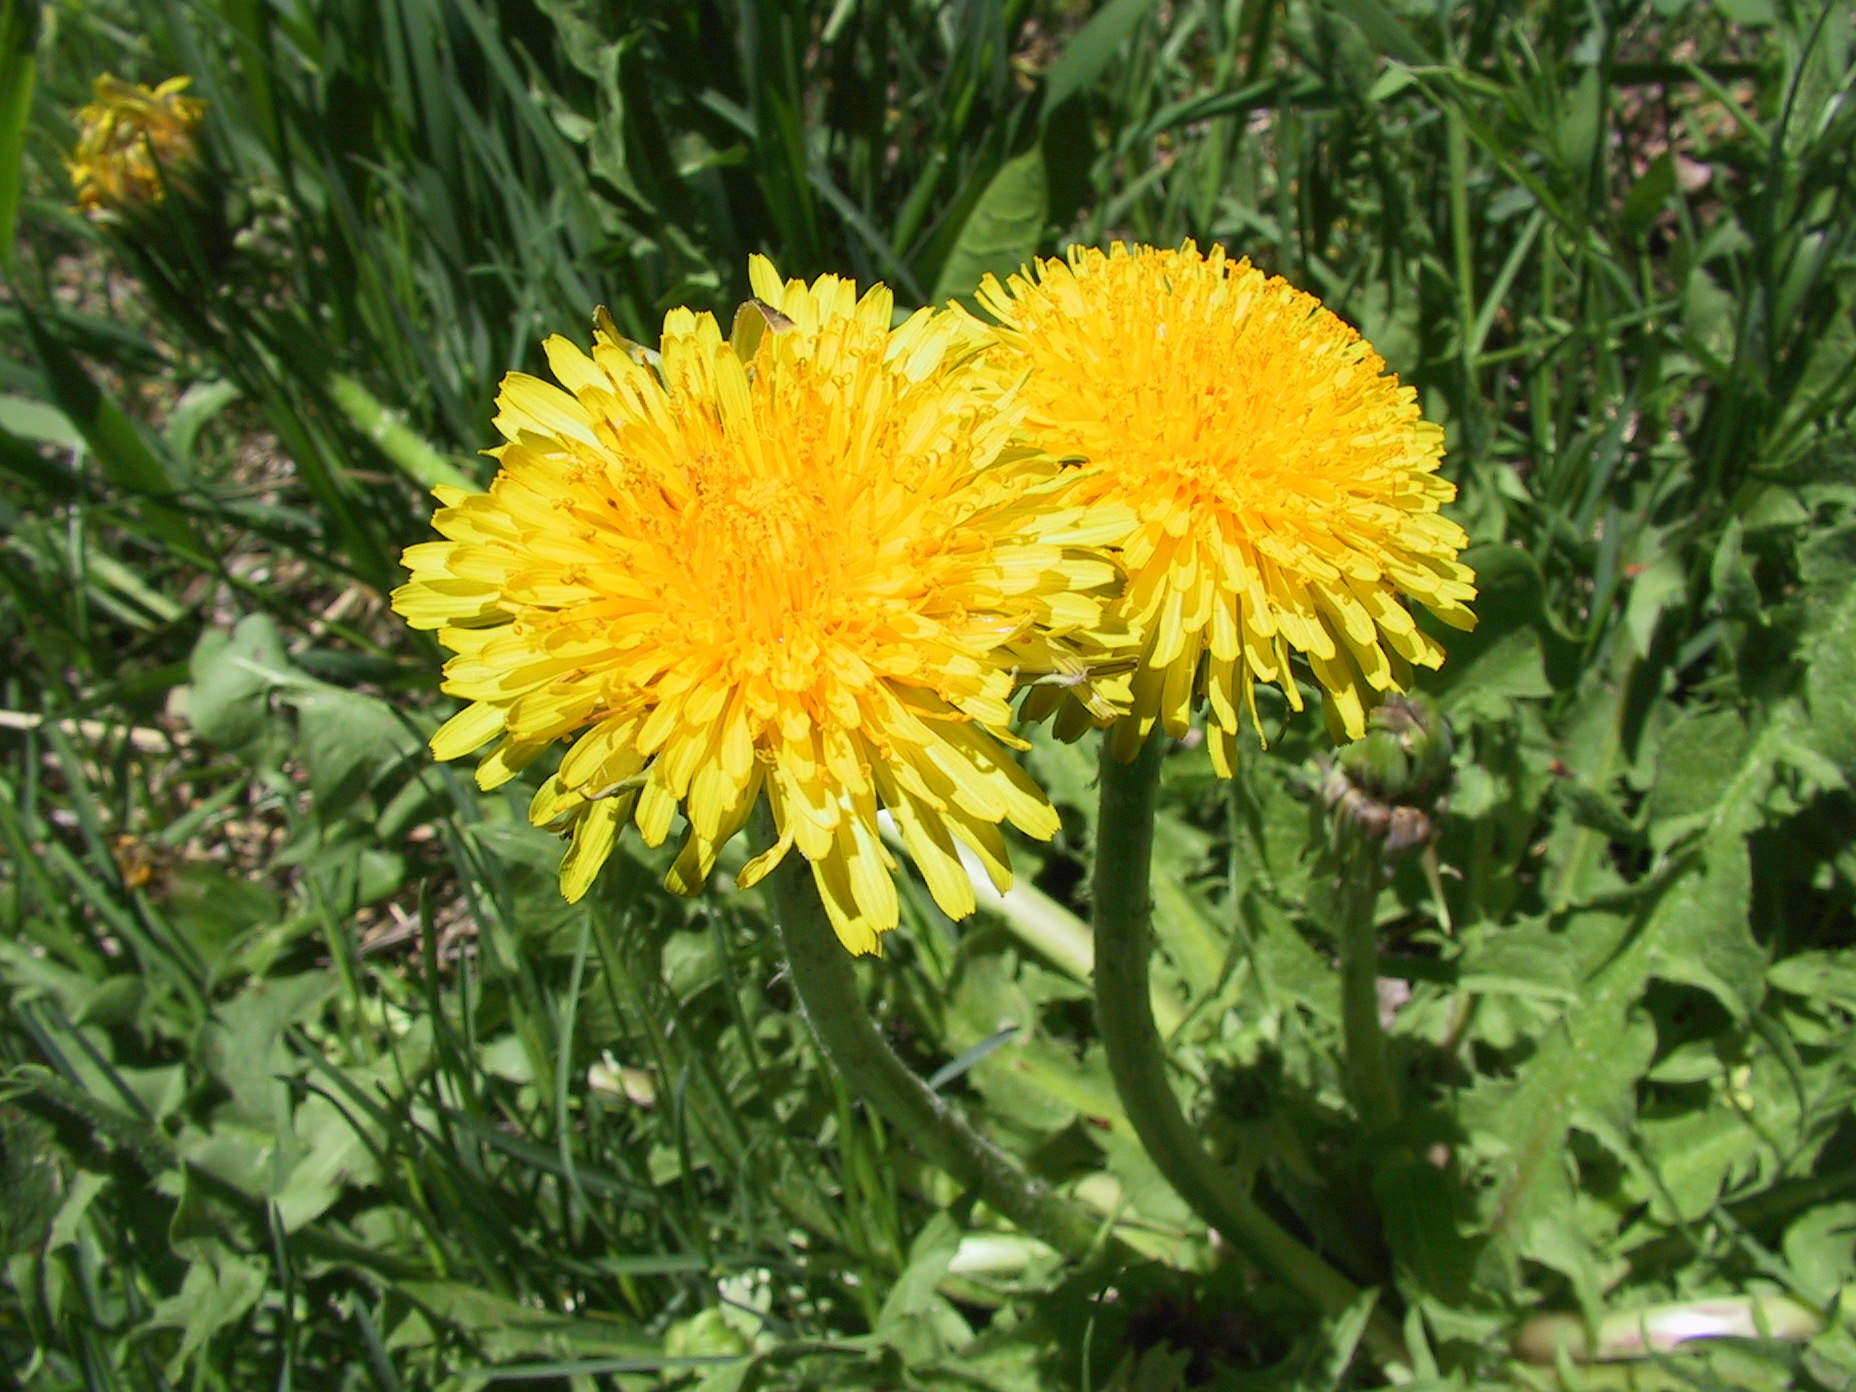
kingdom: Plantae
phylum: Tracheophyta
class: Magnoliopsida
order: Asterales
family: Asteraceae
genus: Taraxacum
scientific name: Taraxacum officinale
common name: Common dandelion
